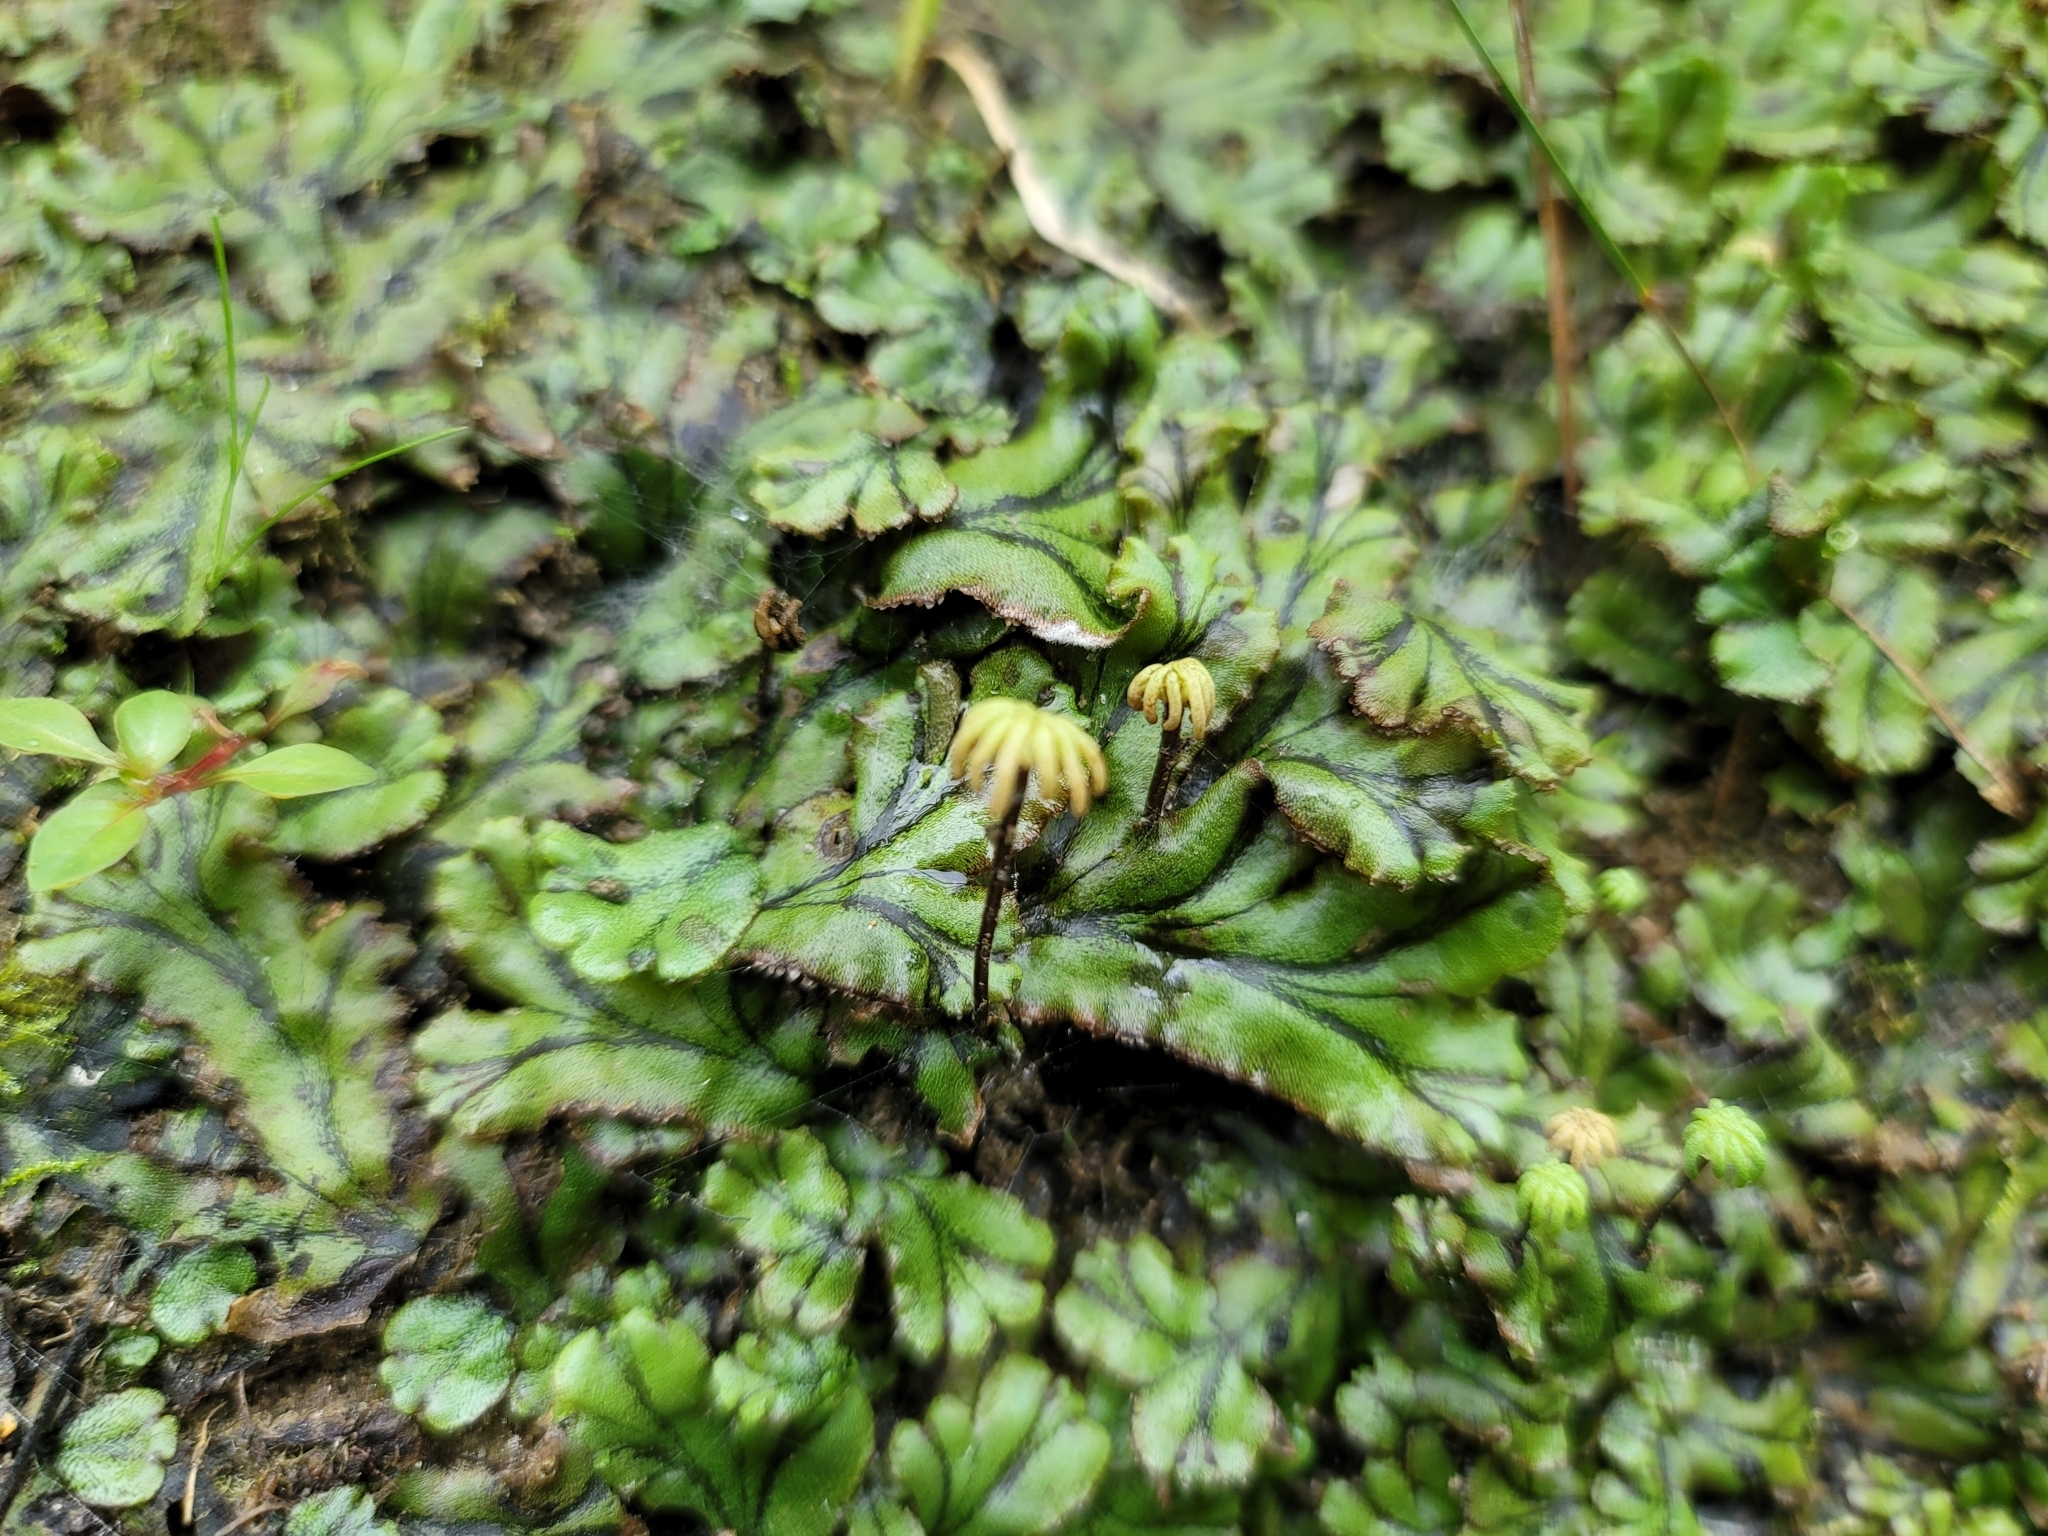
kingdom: Plantae
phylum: Marchantiophyta
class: Marchantiopsida
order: Marchantiales
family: Marchantiaceae
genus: Marchantia
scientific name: Marchantia polymorpha
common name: Common liverwort
